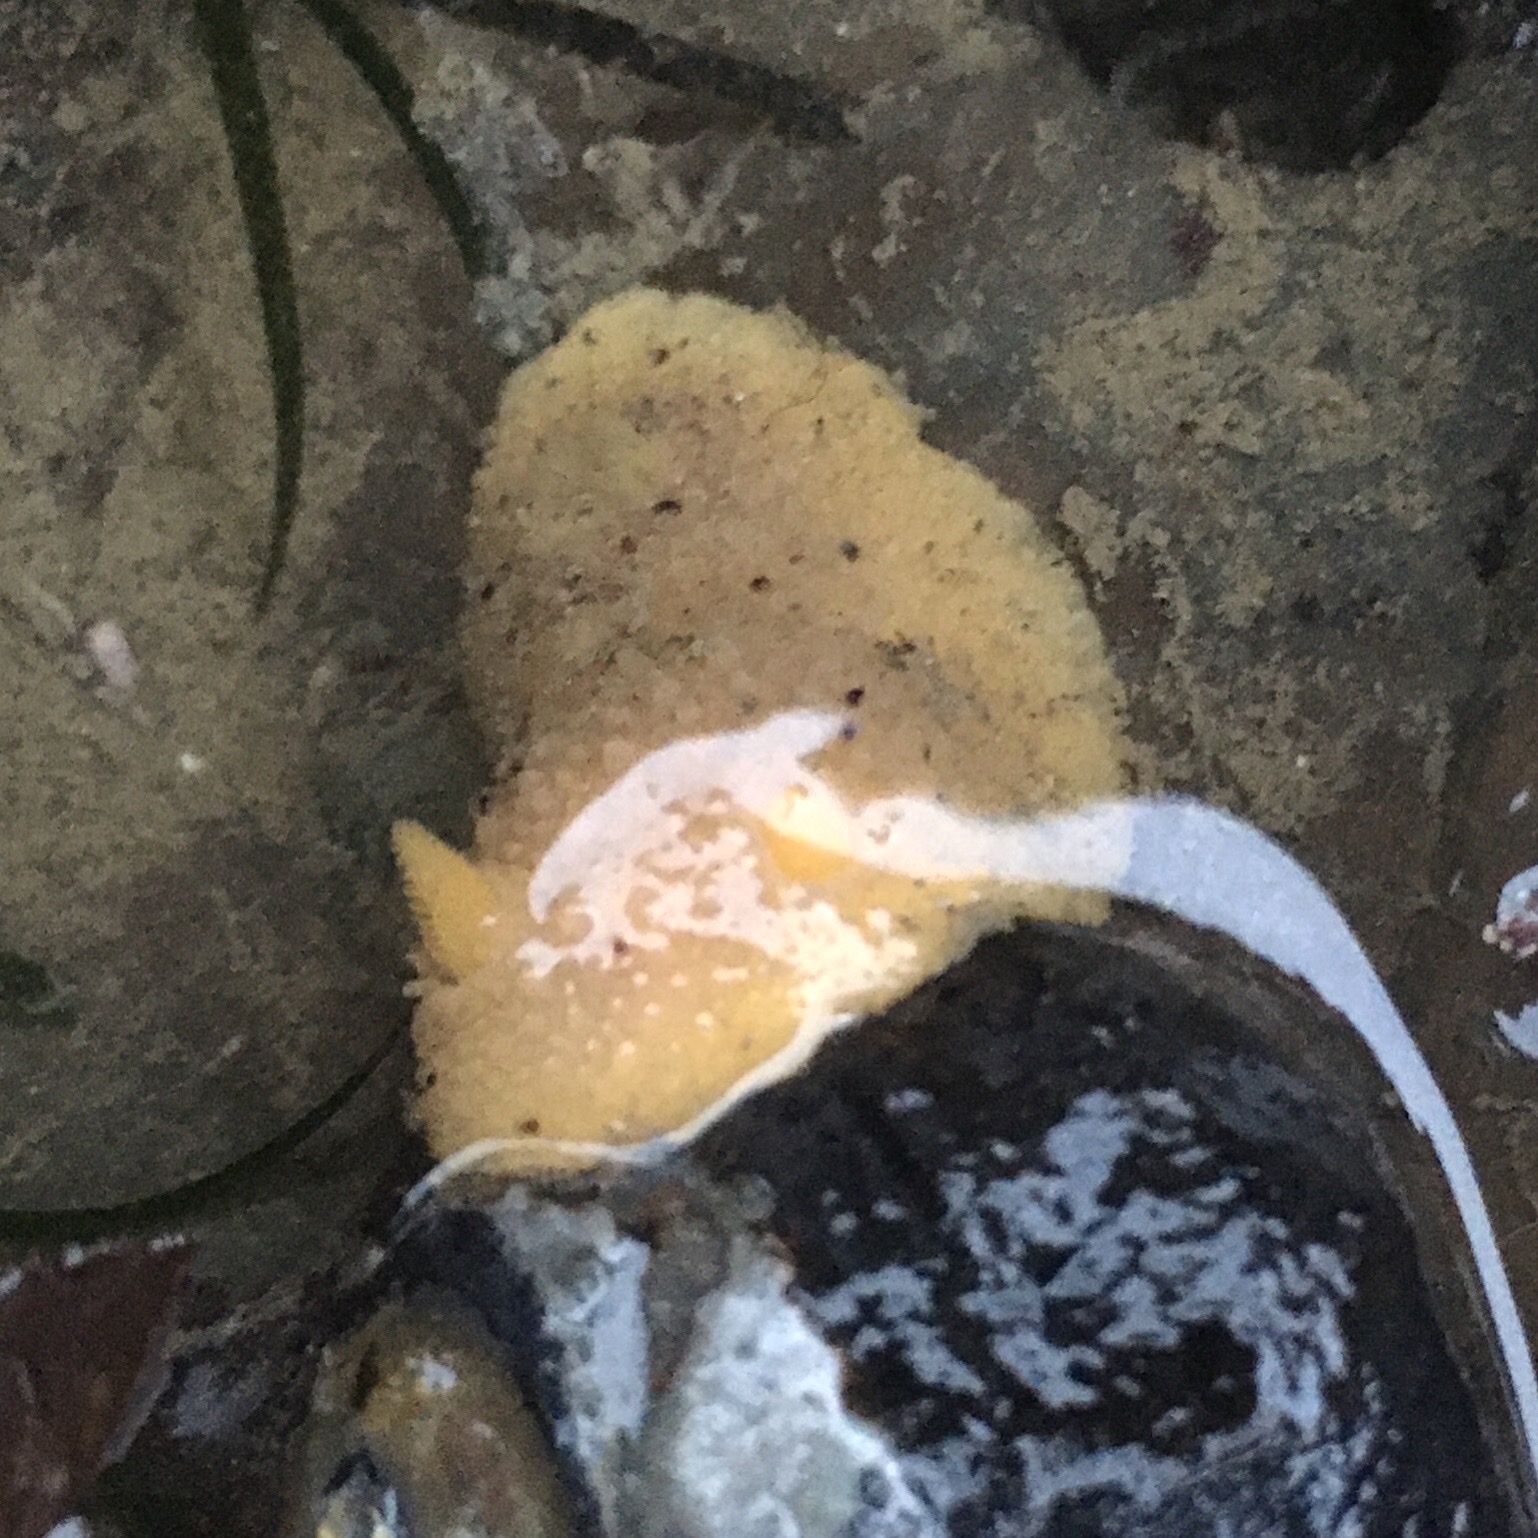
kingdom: Animalia
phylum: Mollusca
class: Gastropoda
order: Nudibranchia
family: Dorididae
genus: Doris
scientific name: Doris montereyensis
